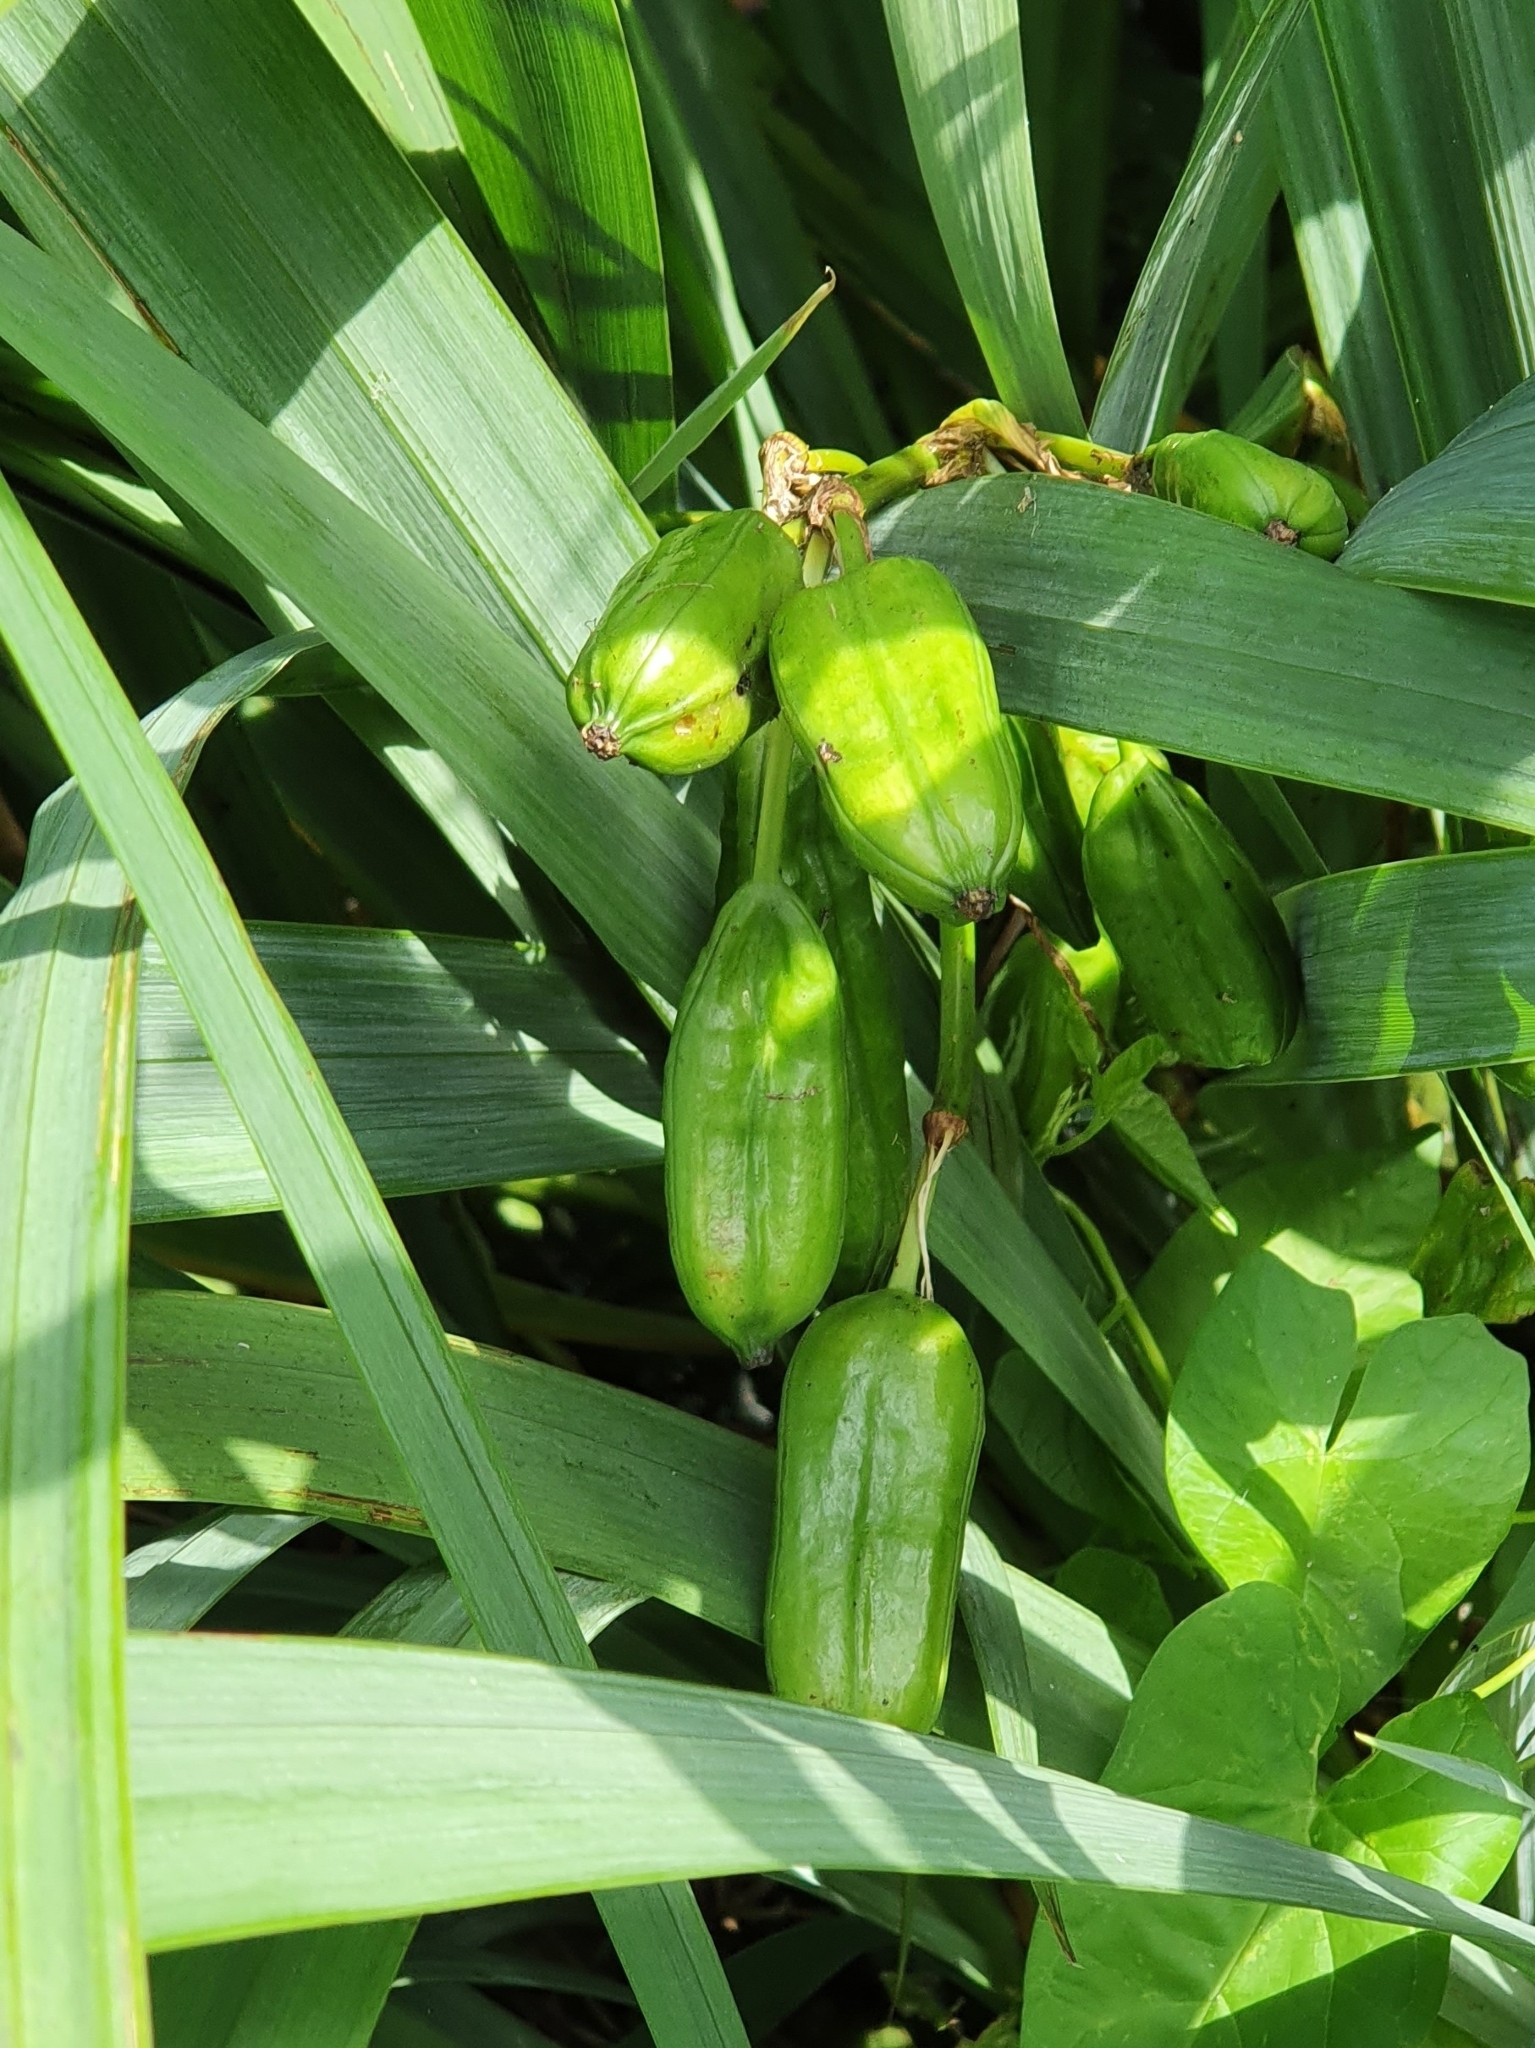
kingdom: Plantae
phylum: Tracheophyta
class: Liliopsida
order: Asparagales
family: Iridaceae
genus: Iris
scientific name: Iris pseudacorus
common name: Yellow flag
